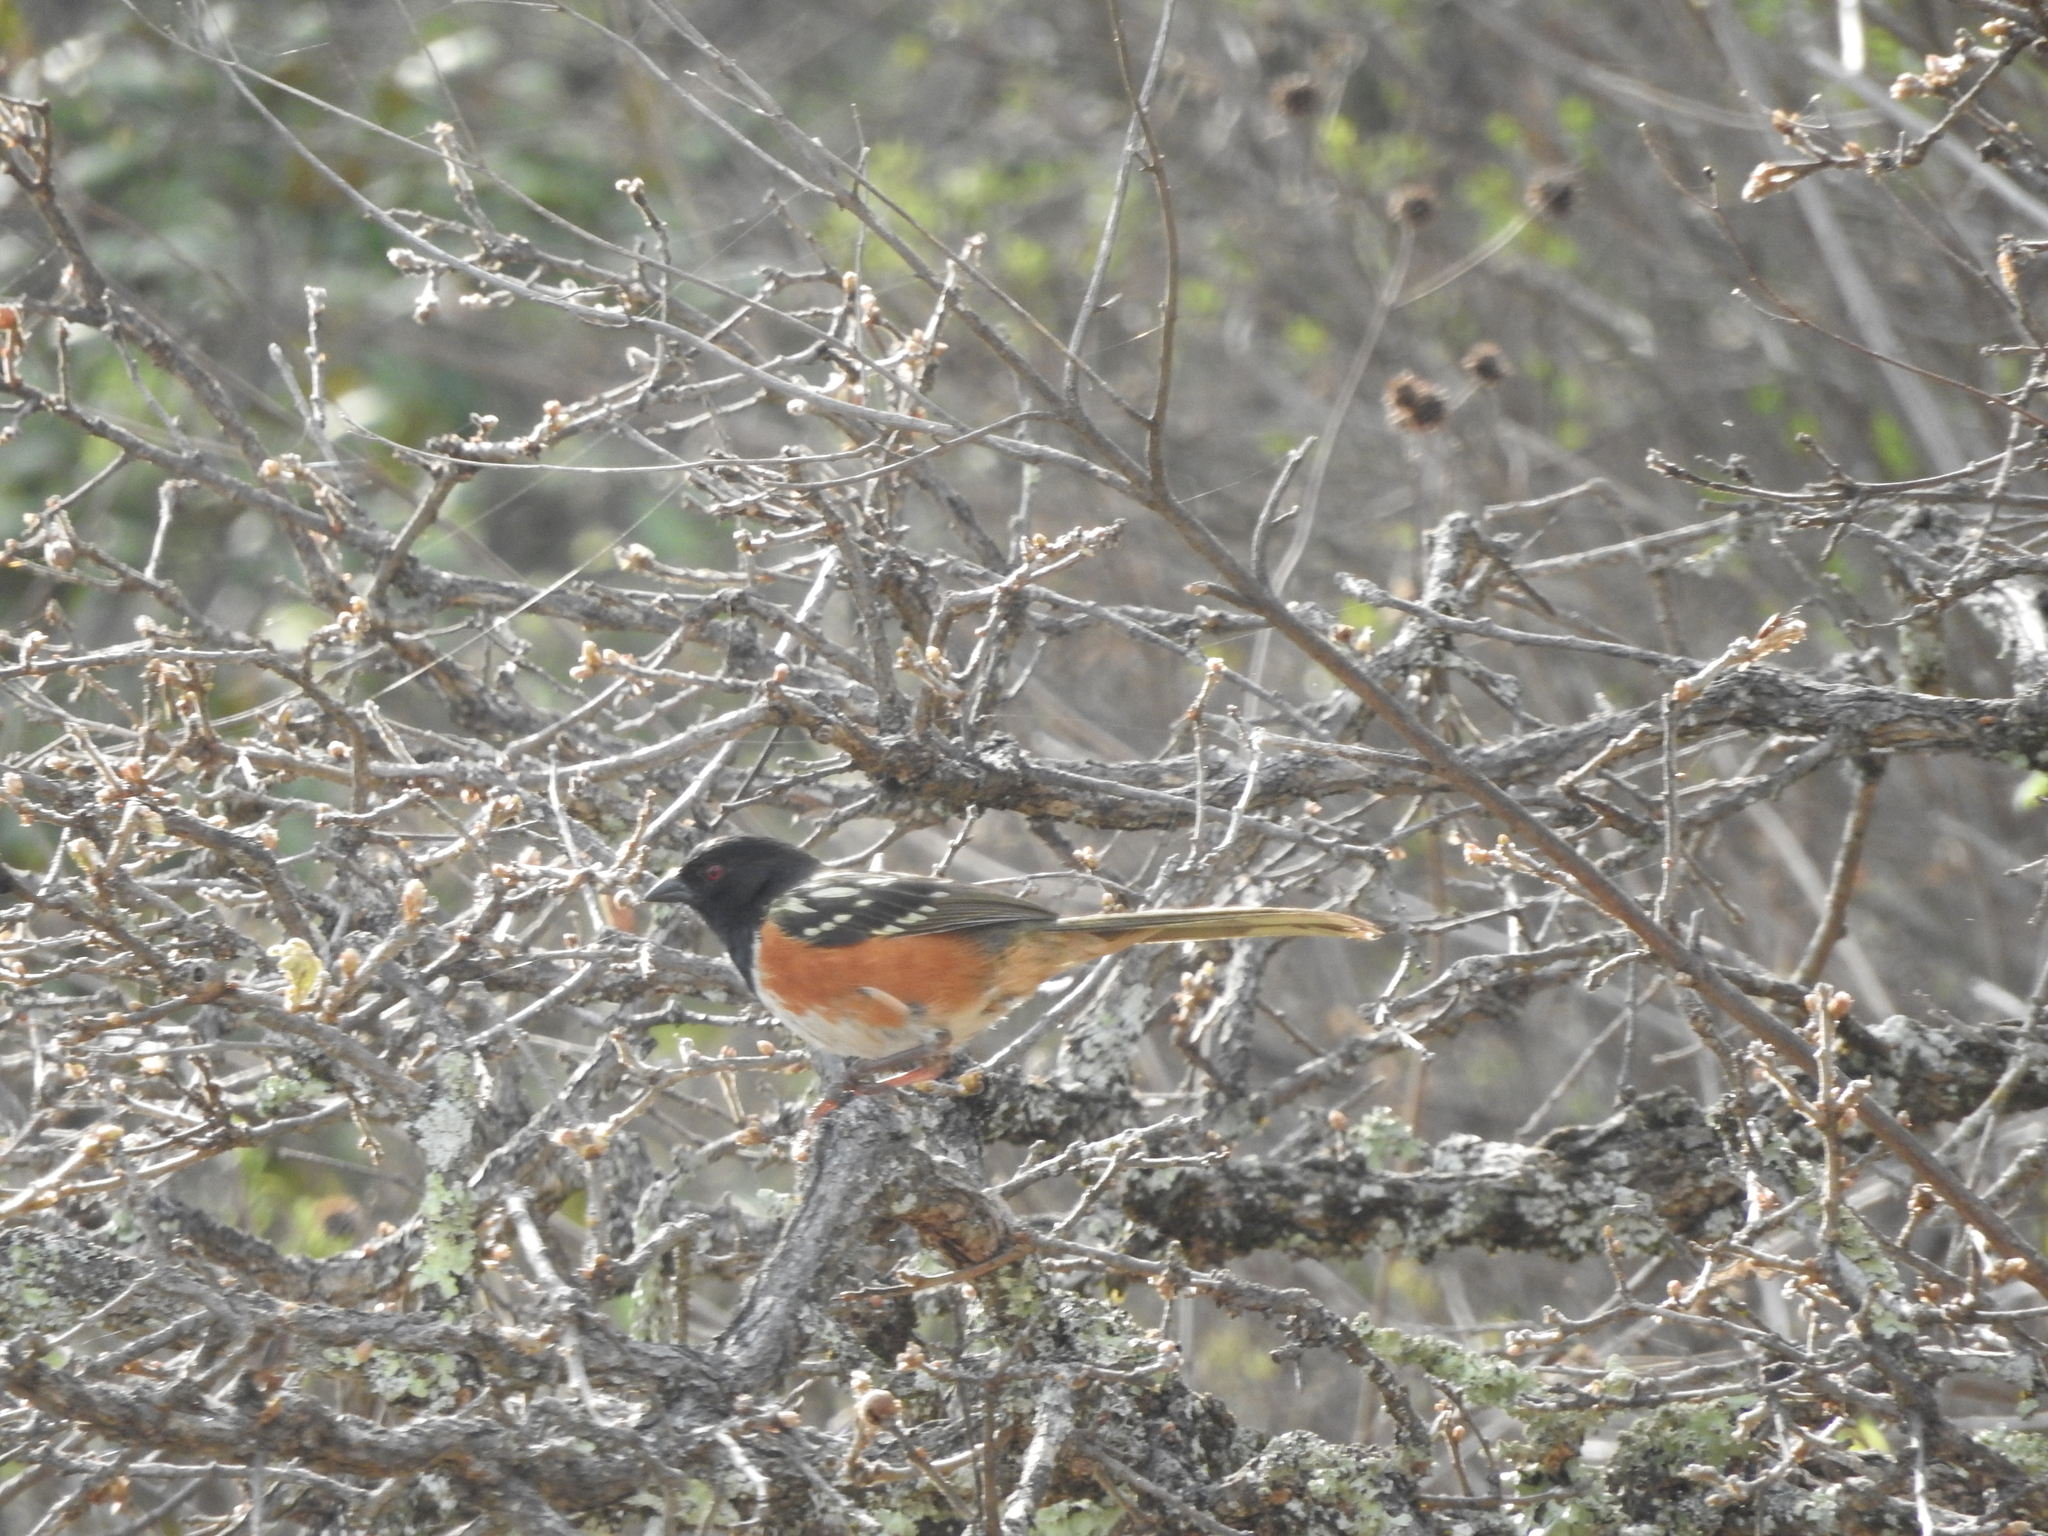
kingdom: Animalia
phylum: Chordata
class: Aves
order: Passeriformes
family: Passerellidae
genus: Pipilo
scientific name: Pipilo maculatus
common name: Spotted towhee
